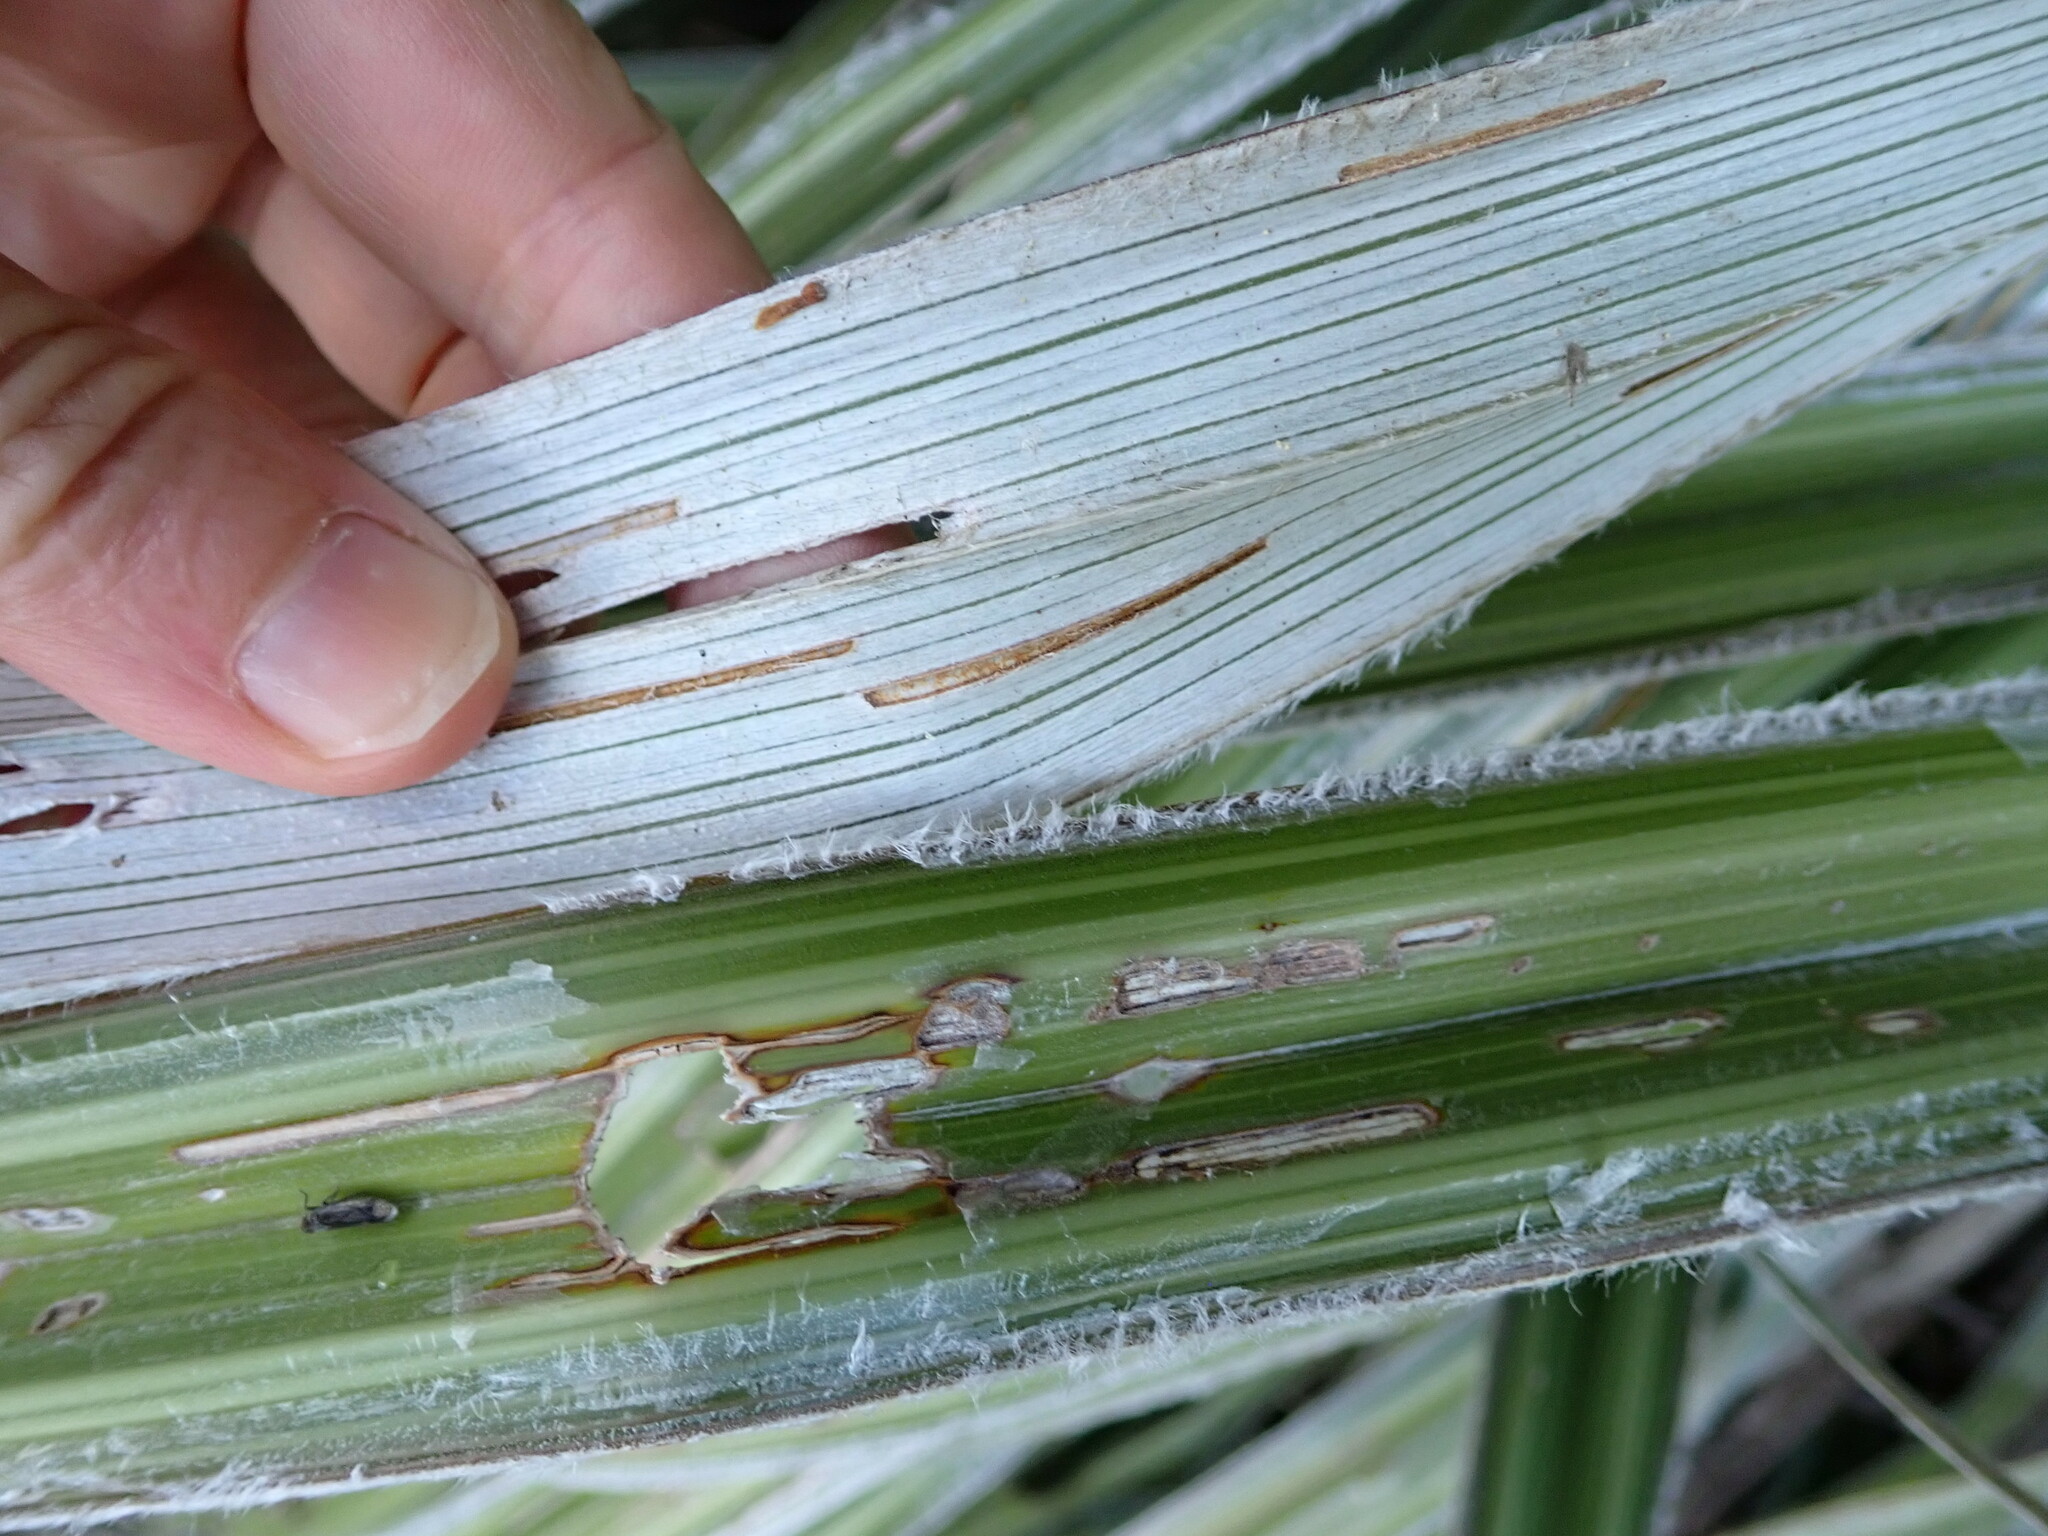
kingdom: Plantae
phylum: Tracheophyta
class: Liliopsida
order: Asparagales
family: Asteliaceae
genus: Astelia
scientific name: Astelia nervosa
